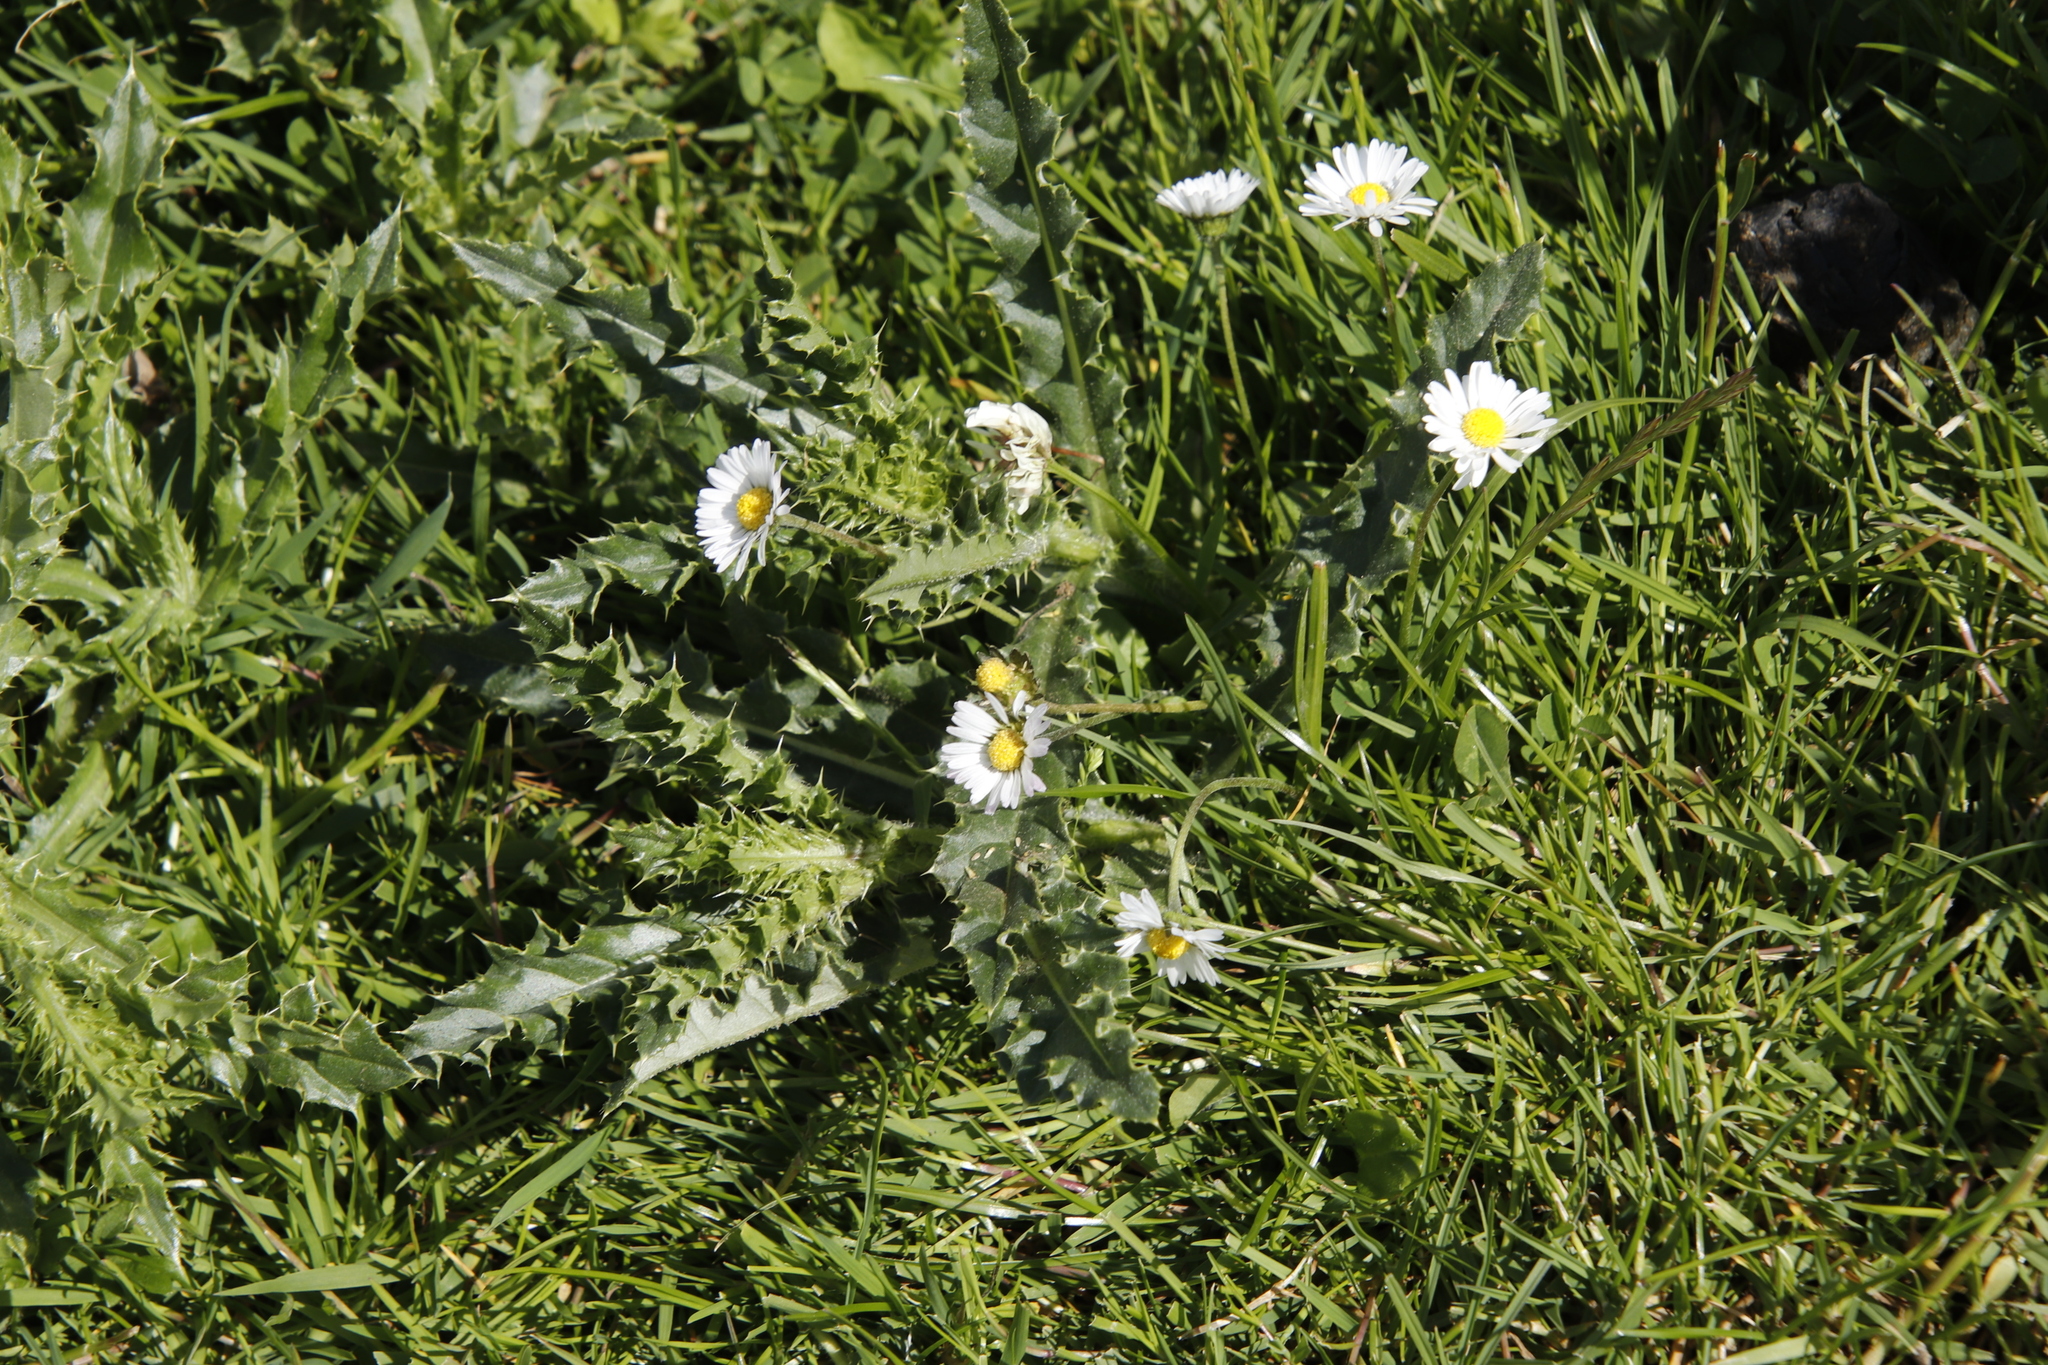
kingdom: Plantae
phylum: Tracheophyta
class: Magnoliopsida
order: Asterales
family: Asteraceae
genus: Bellis
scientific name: Bellis perennis
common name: Lawndaisy
